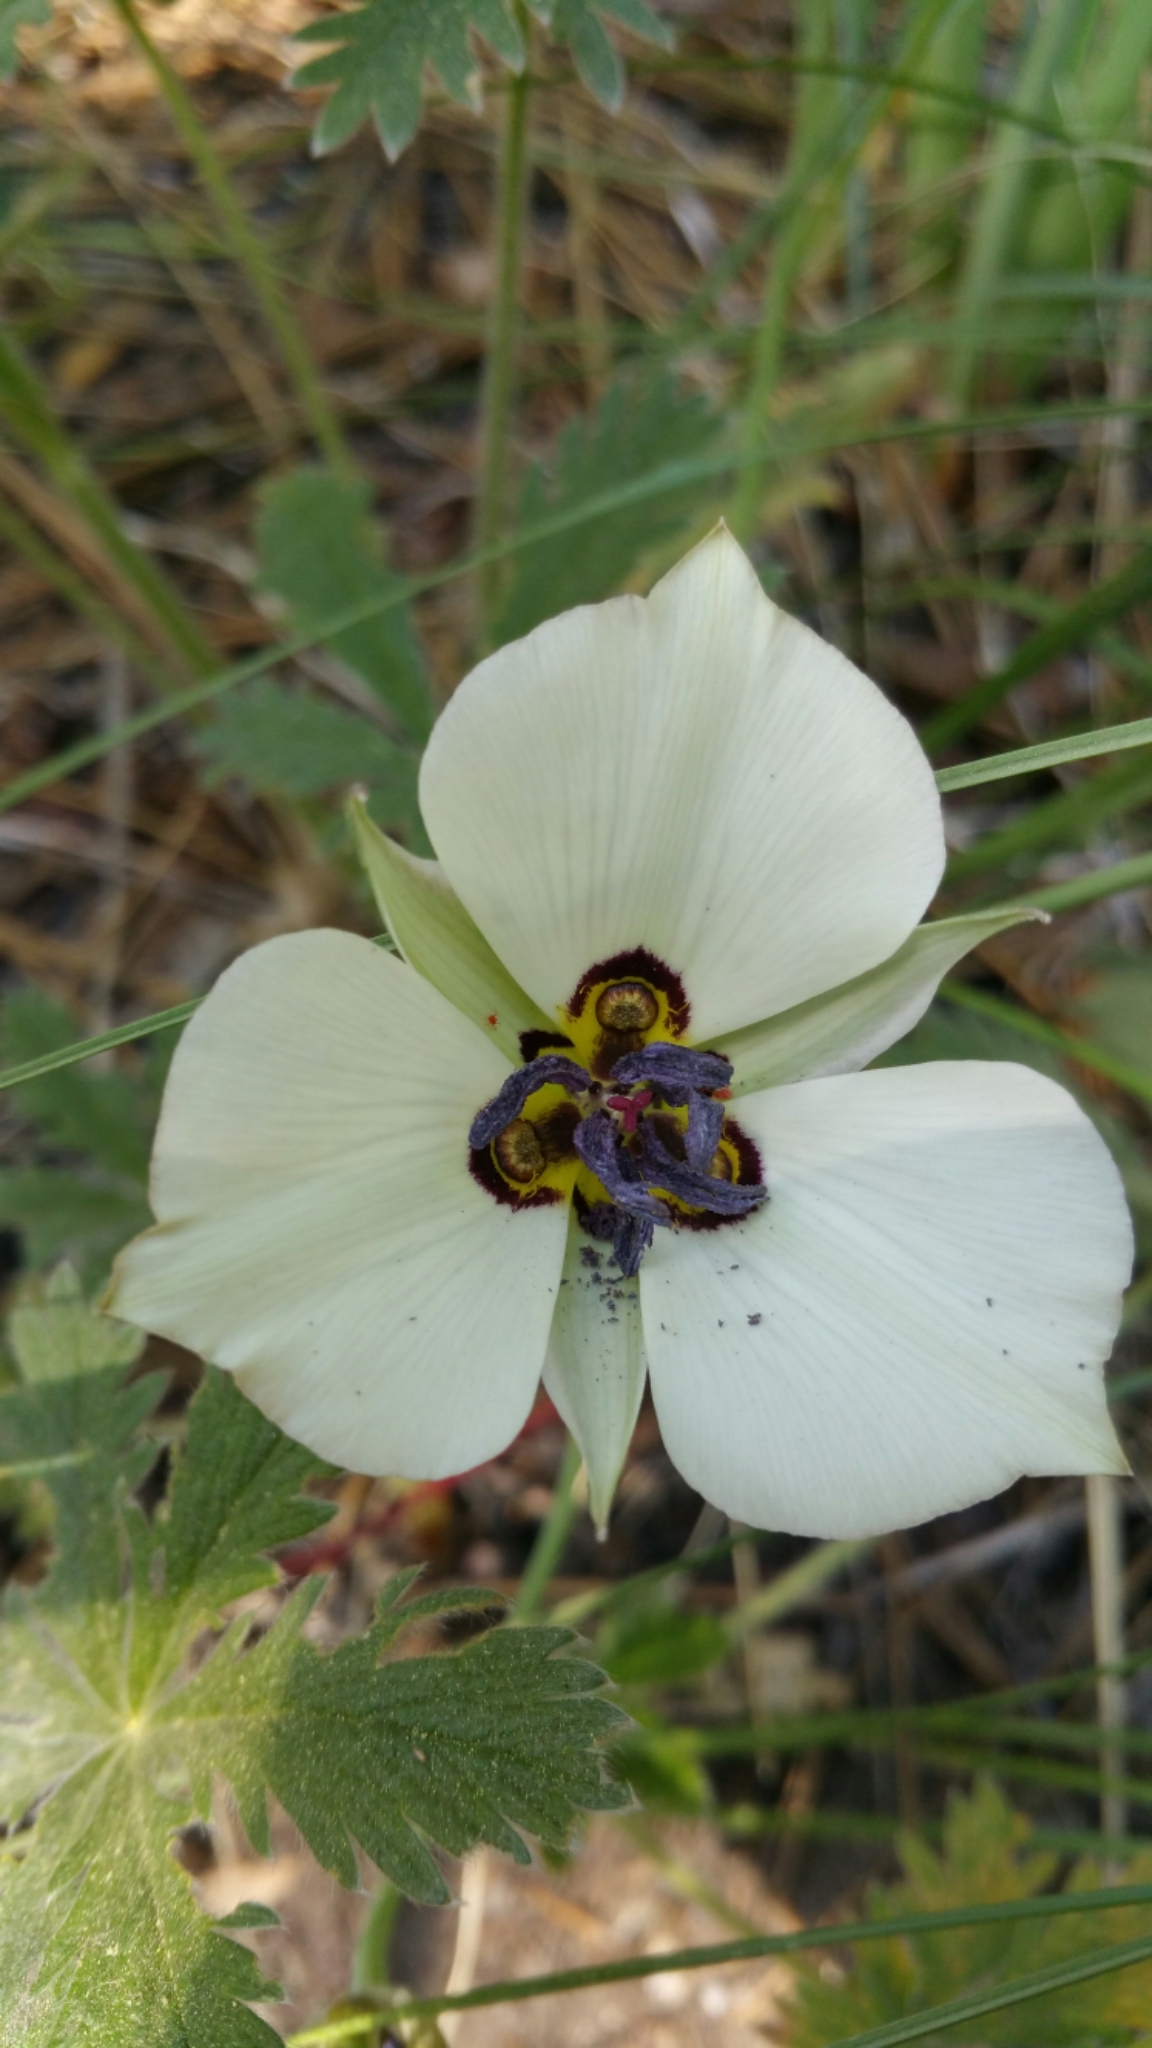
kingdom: Plantae
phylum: Tracheophyta
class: Liliopsida
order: Liliales
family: Liliaceae
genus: Calochortus
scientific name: Calochortus bruneaunis
